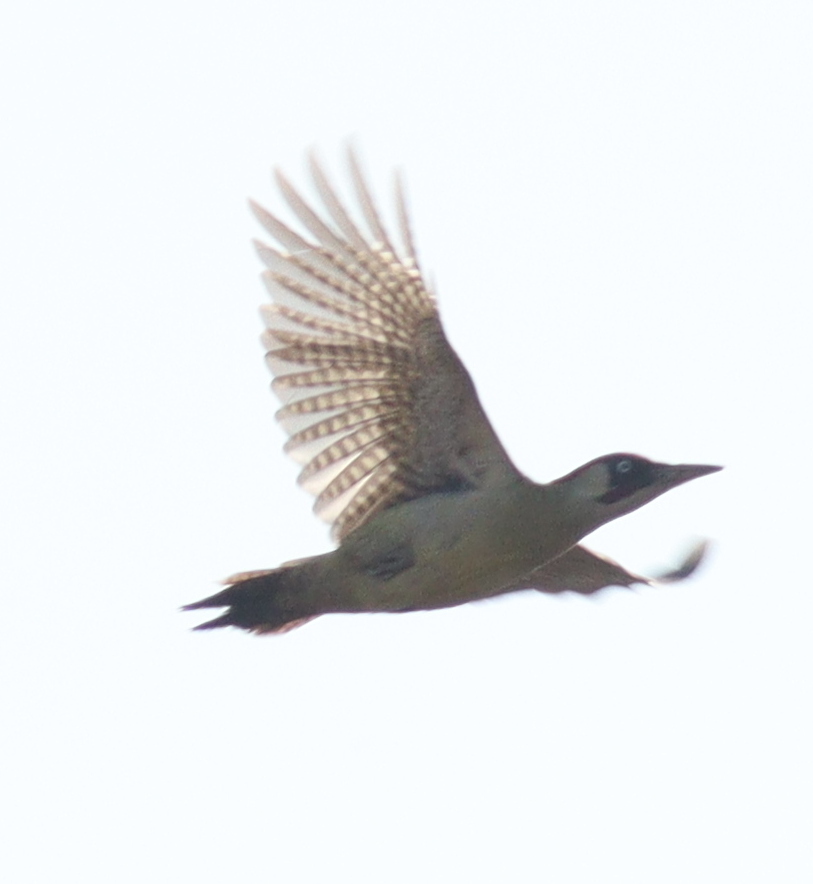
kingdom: Animalia
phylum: Chordata
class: Aves
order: Piciformes
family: Picidae
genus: Picus
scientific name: Picus viridis
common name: European green woodpecker
